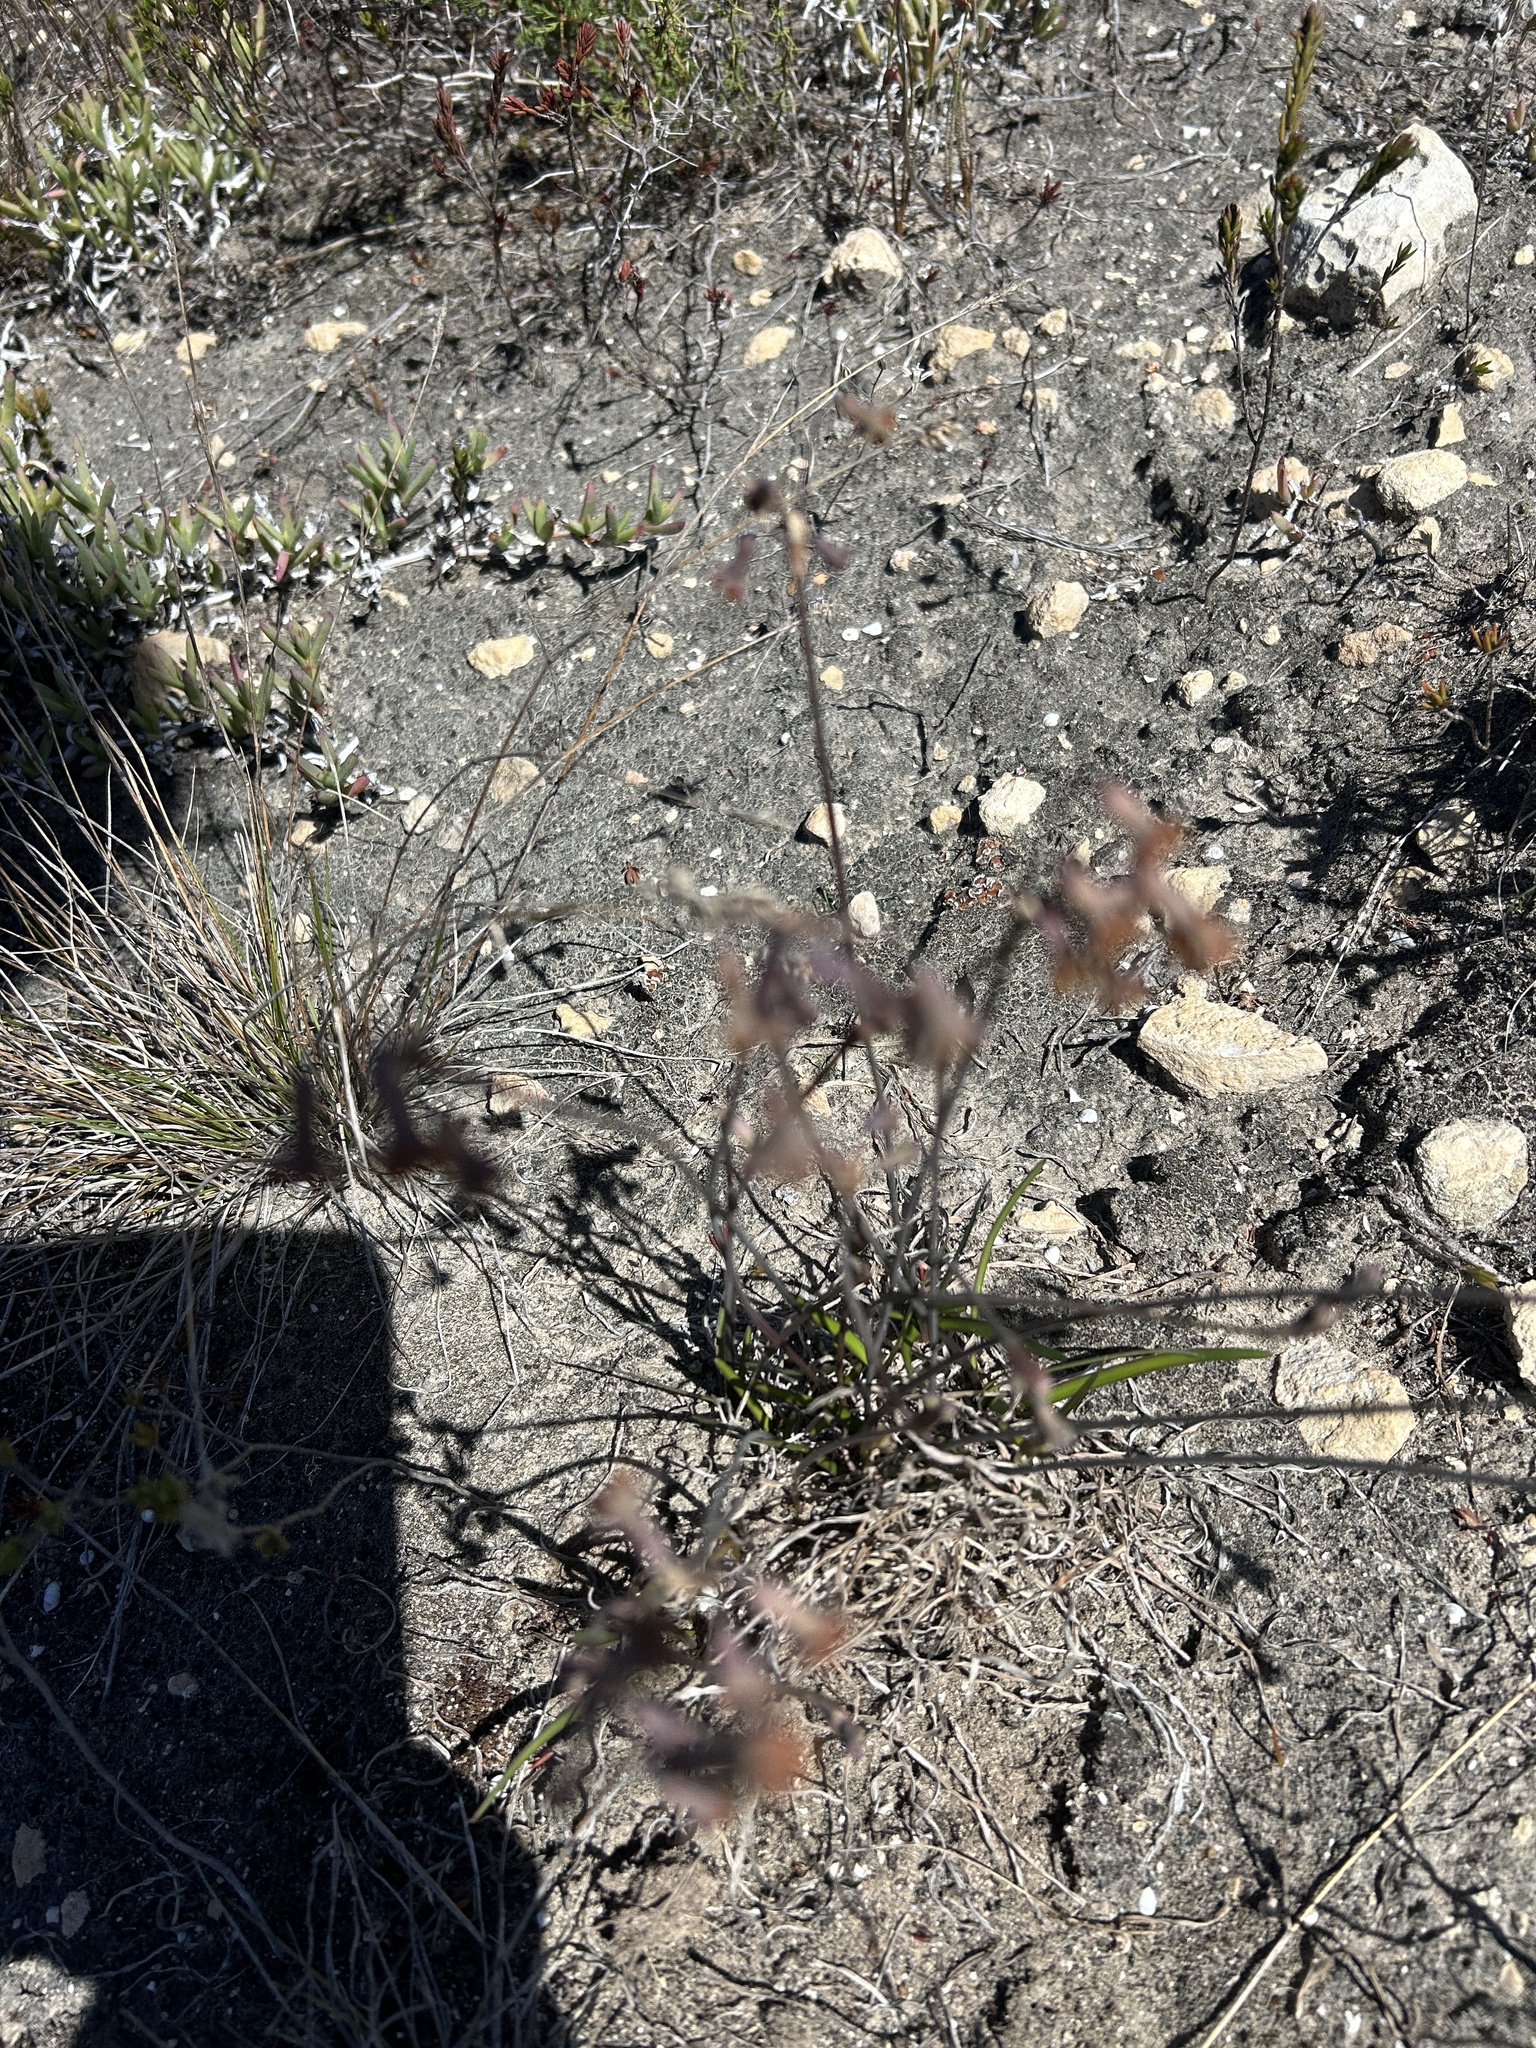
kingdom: Plantae
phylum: Tracheophyta
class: Liliopsida
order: Asparagales
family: Amaryllidaceae
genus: Tulbaghia
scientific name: Tulbaghia capensis
